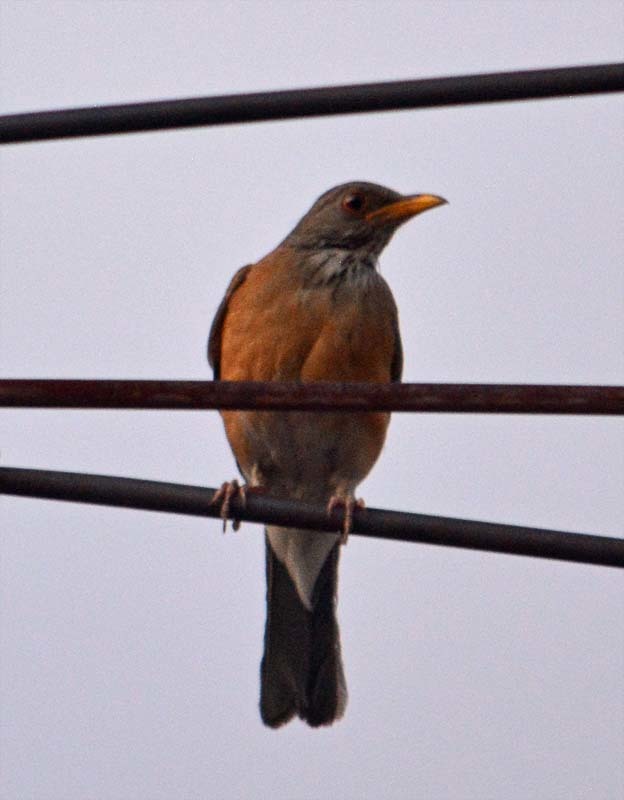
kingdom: Animalia
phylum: Chordata
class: Aves
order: Passeriformes
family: Turdidae
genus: Turdus
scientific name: Turdus rufopalliatus
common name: Rufous-backed robin
